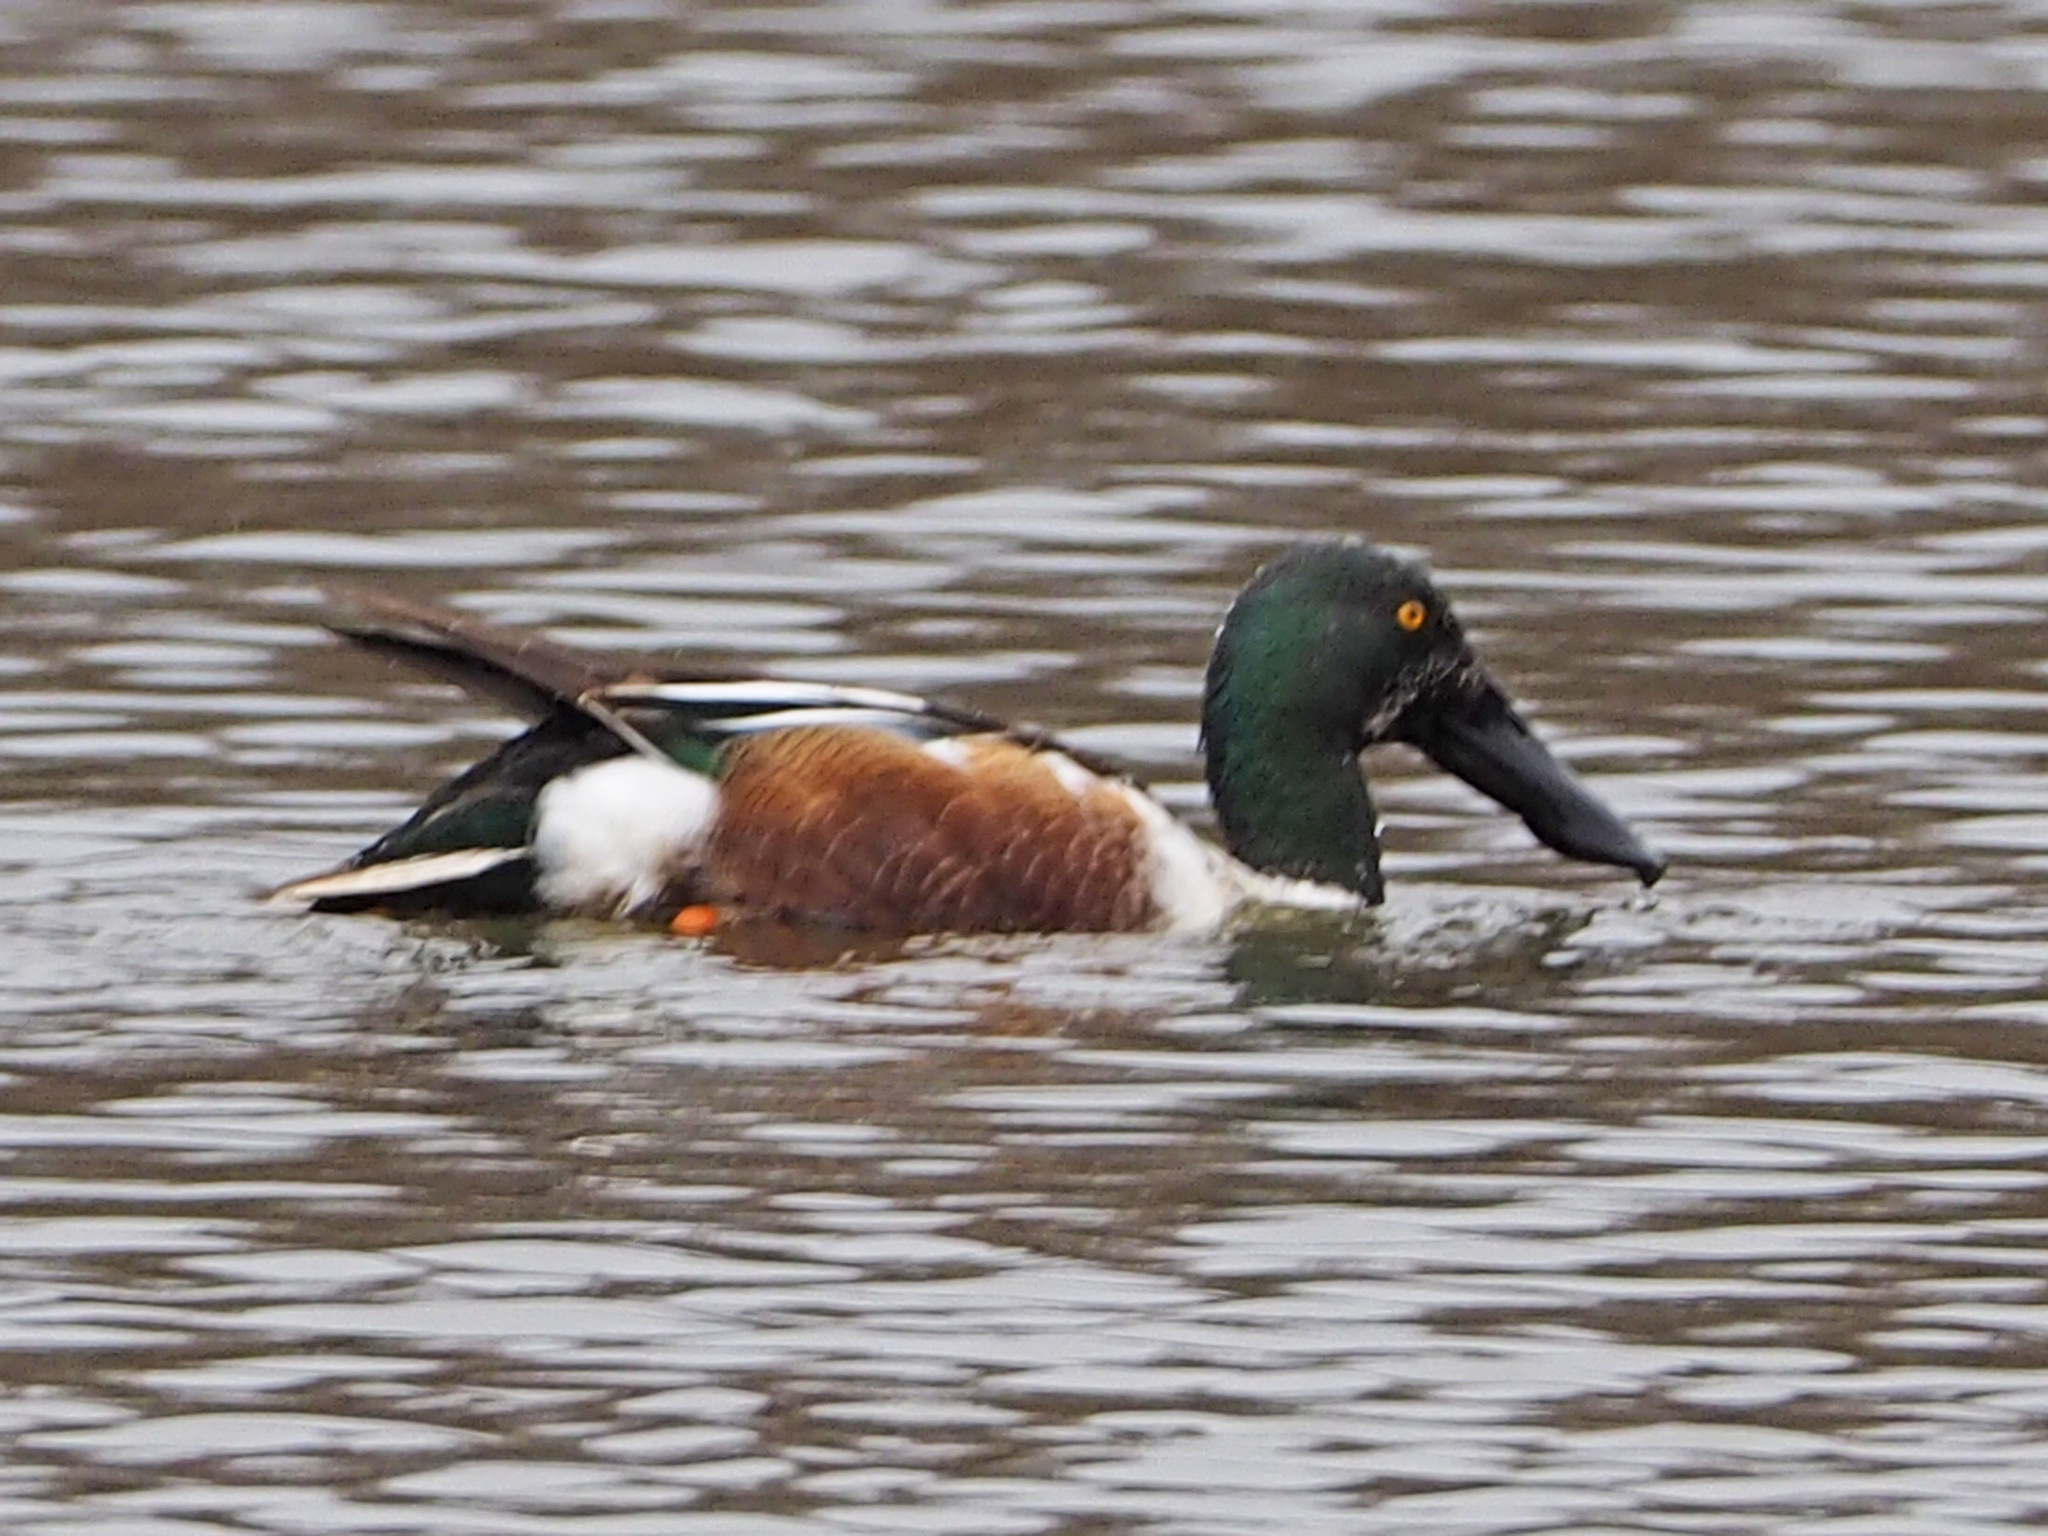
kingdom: Animalia
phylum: Chordata
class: Aves
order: Anseriformes
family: Anatidae
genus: Spatula
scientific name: Spatula clypeata
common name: Northern shoveler
